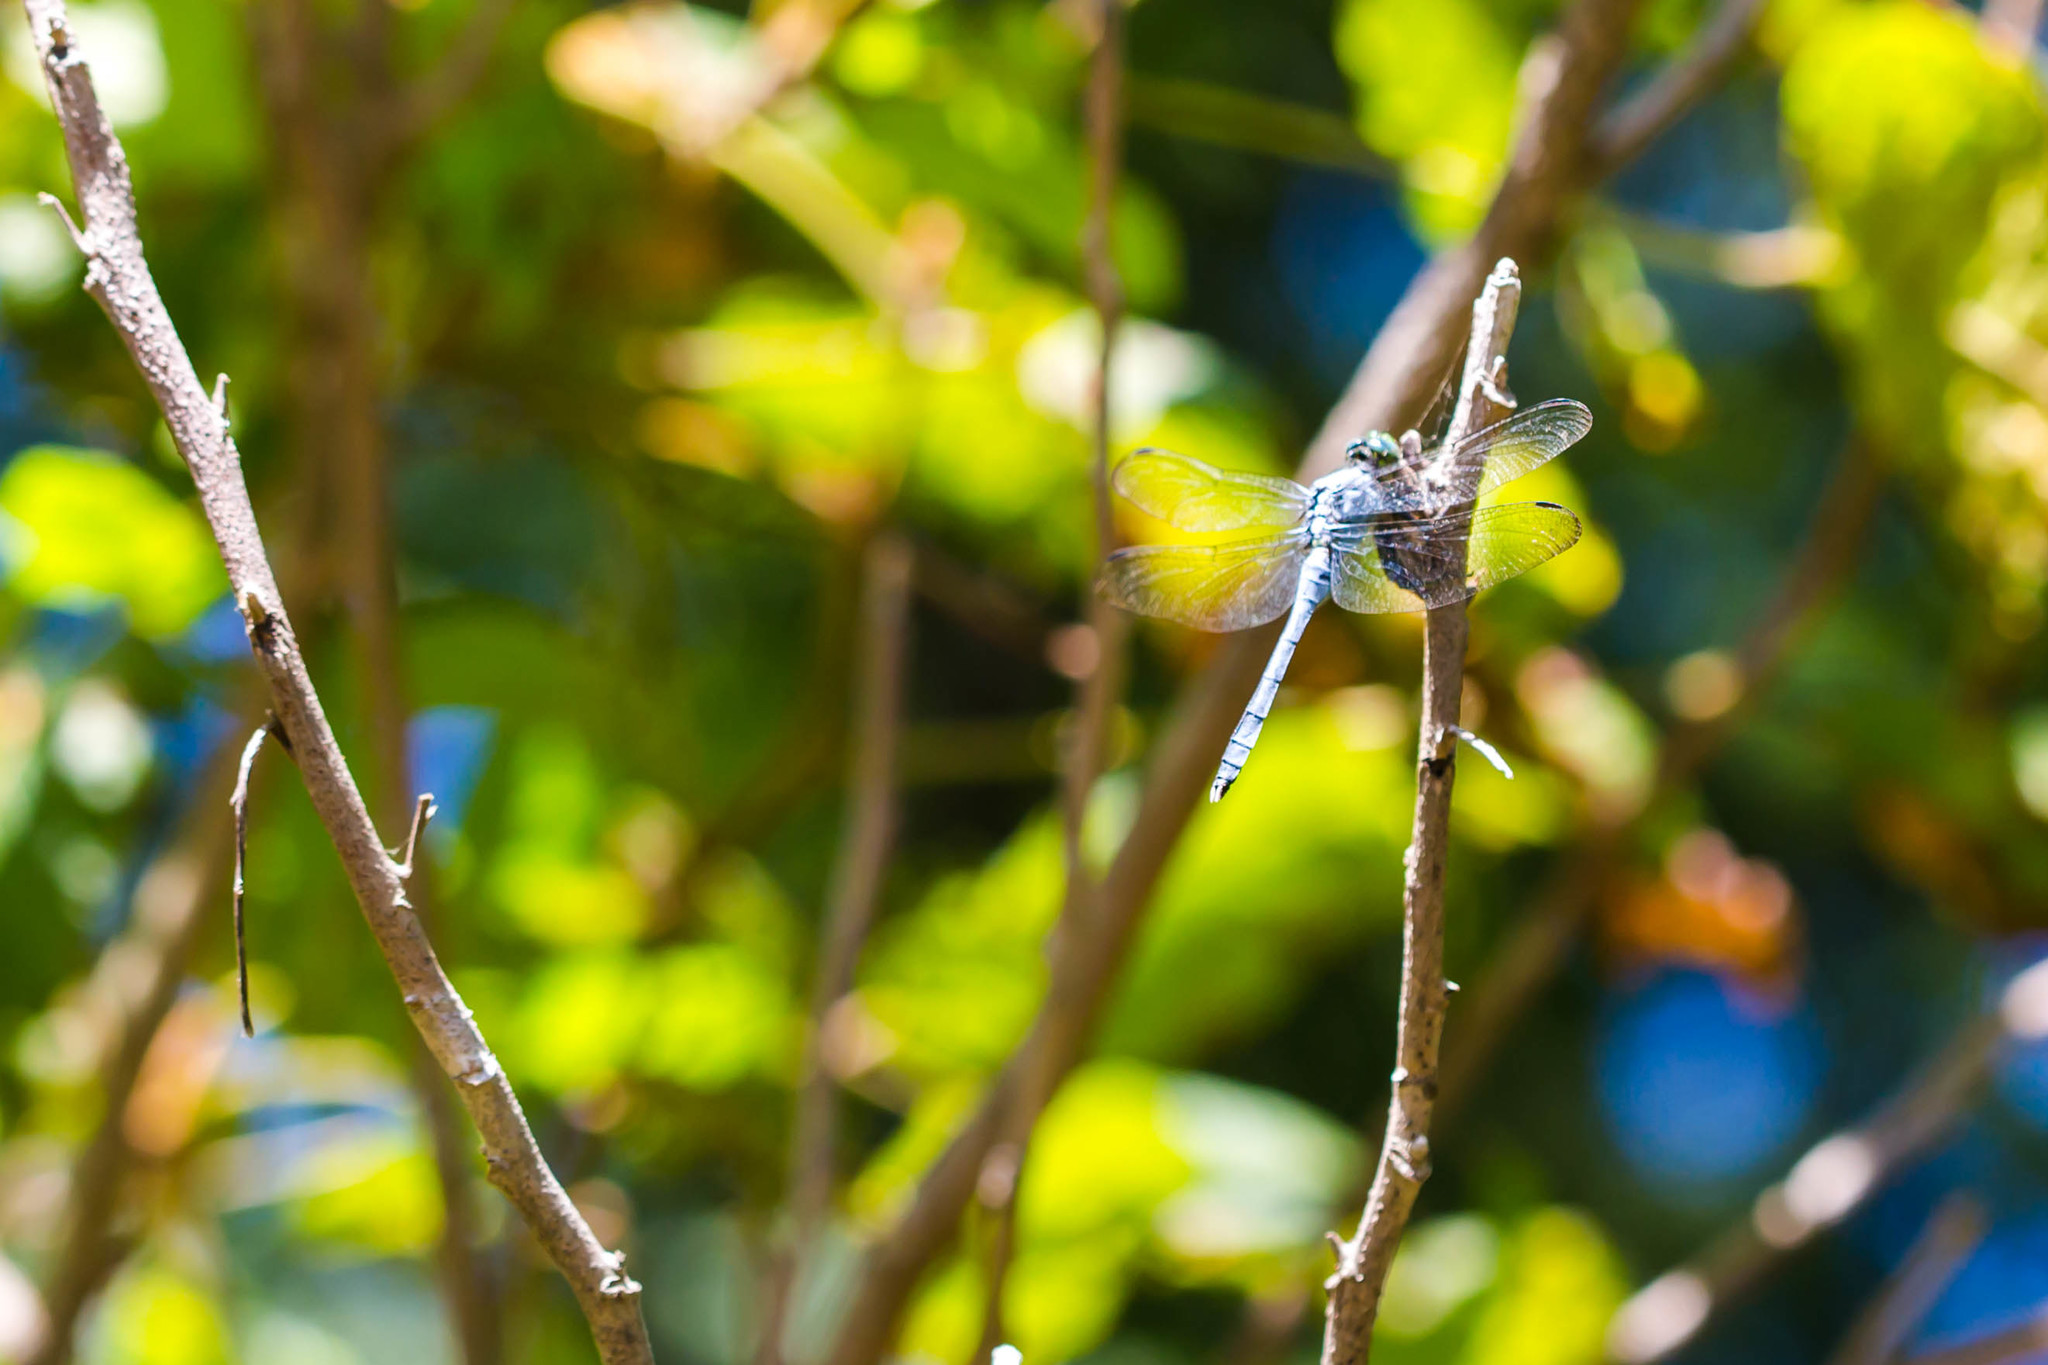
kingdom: Animalia
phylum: Arthropoda
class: Insecta
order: Odonata
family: Libellulidae
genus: Erythemis
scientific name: Erythemis simplicicollis
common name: Eastern pondhawk
